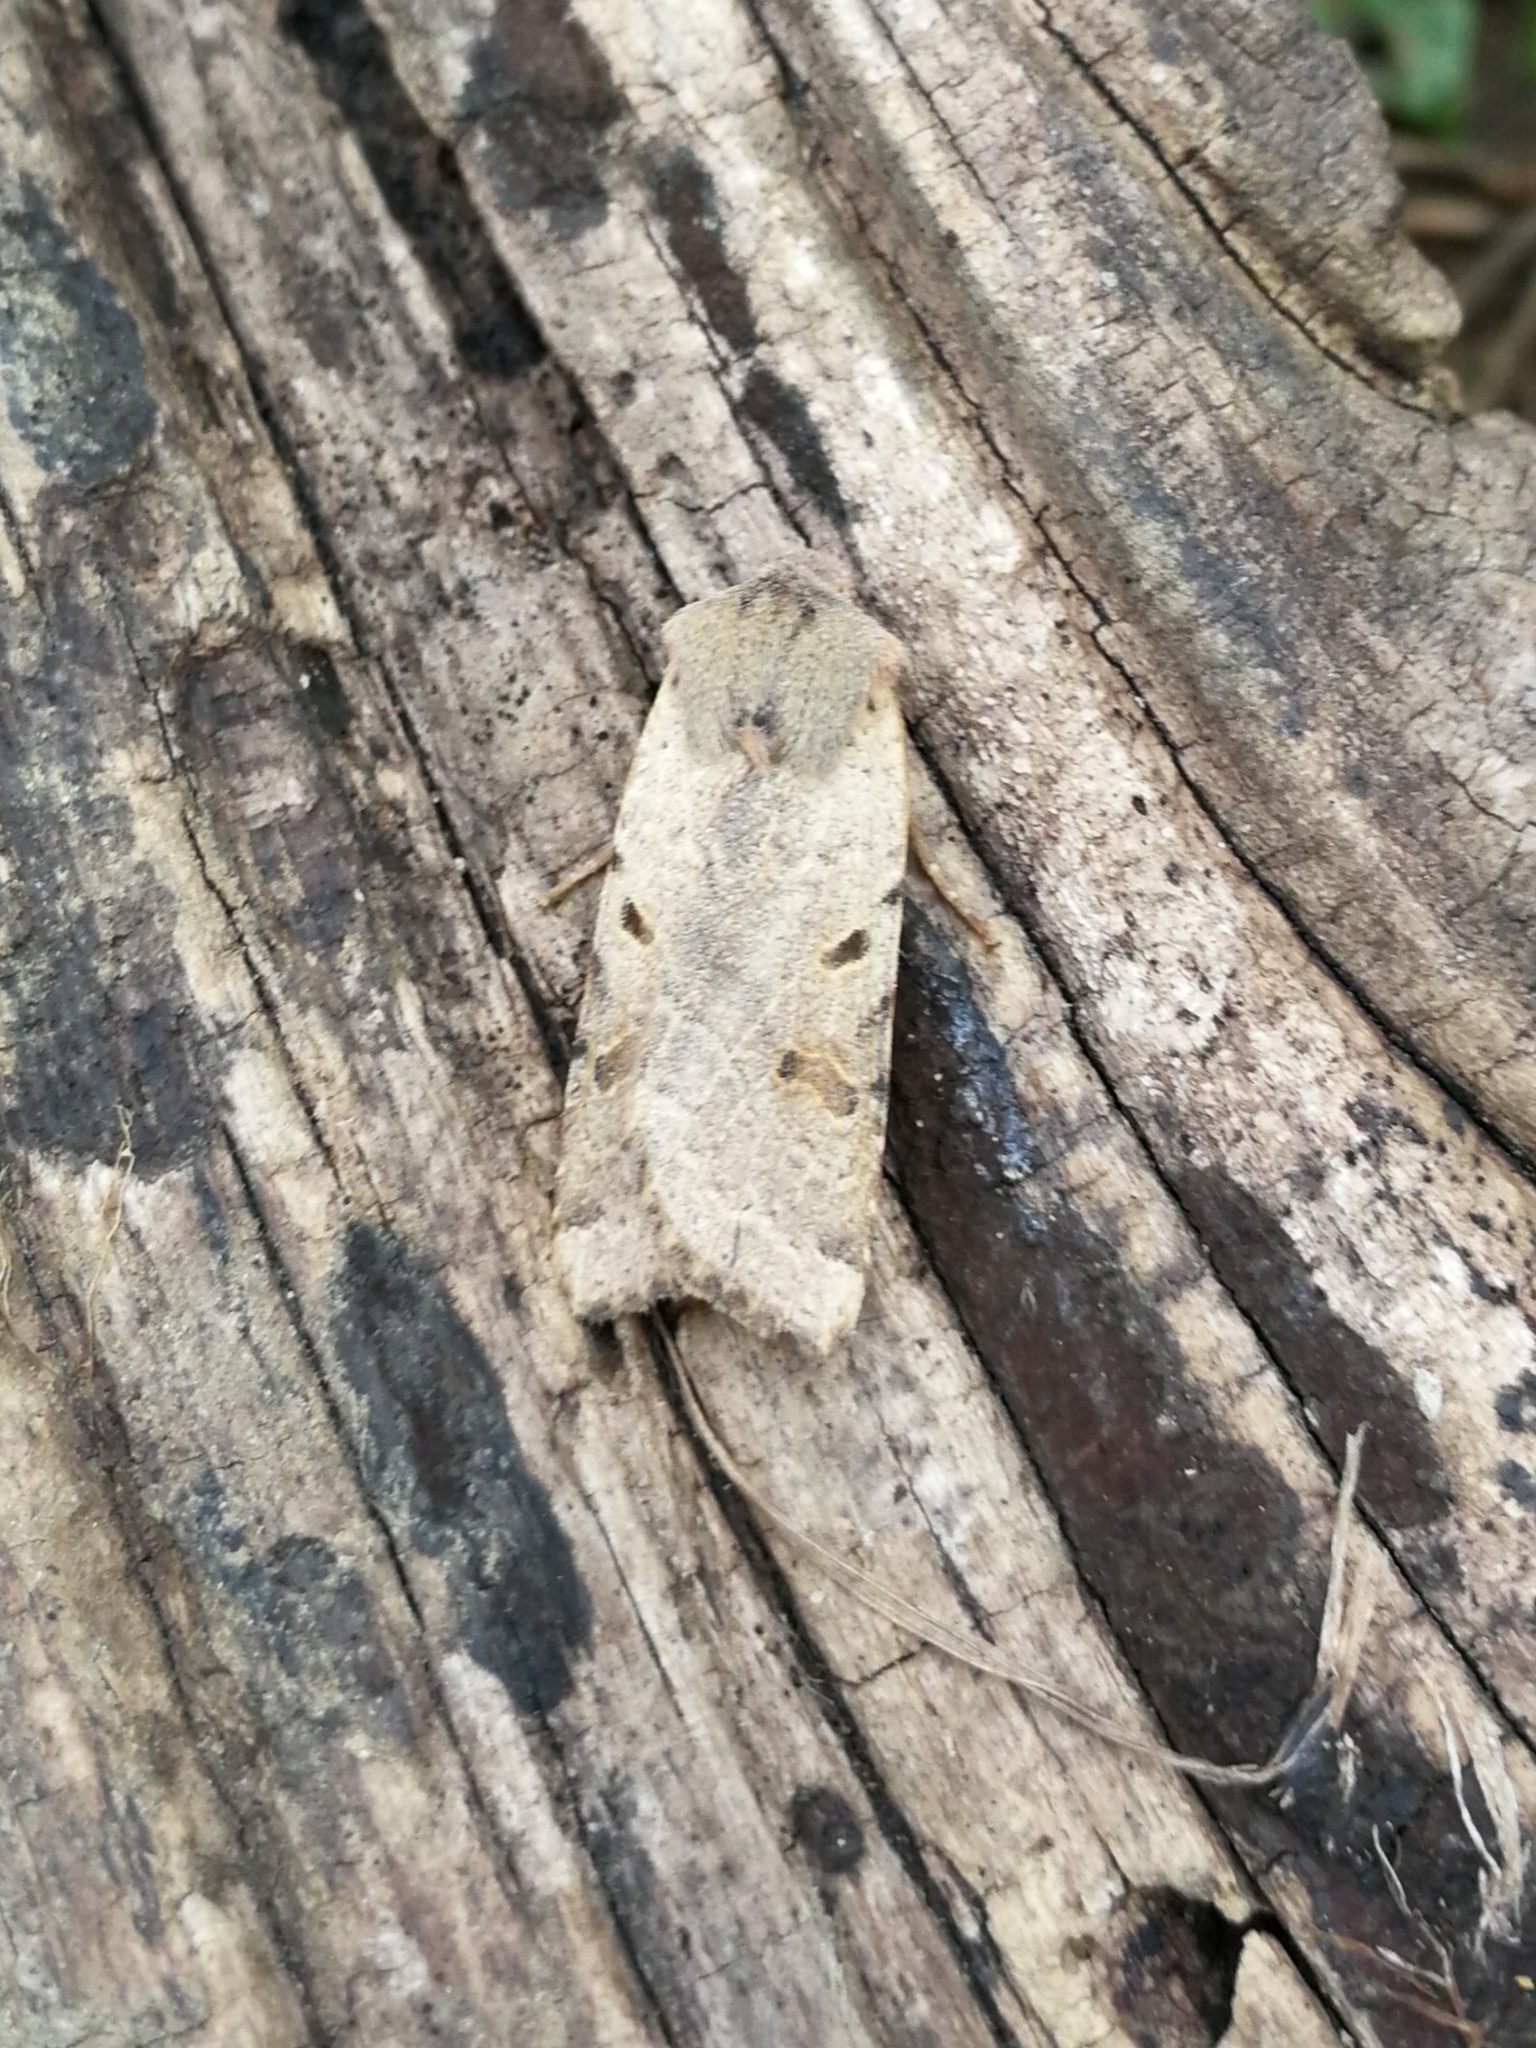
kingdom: Animalia
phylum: Arthropoda
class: Insecta
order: Lepidoptera
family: Noctuidae
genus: Agrochola
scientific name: Agrochola lychnidis
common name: Beaded chestnut
